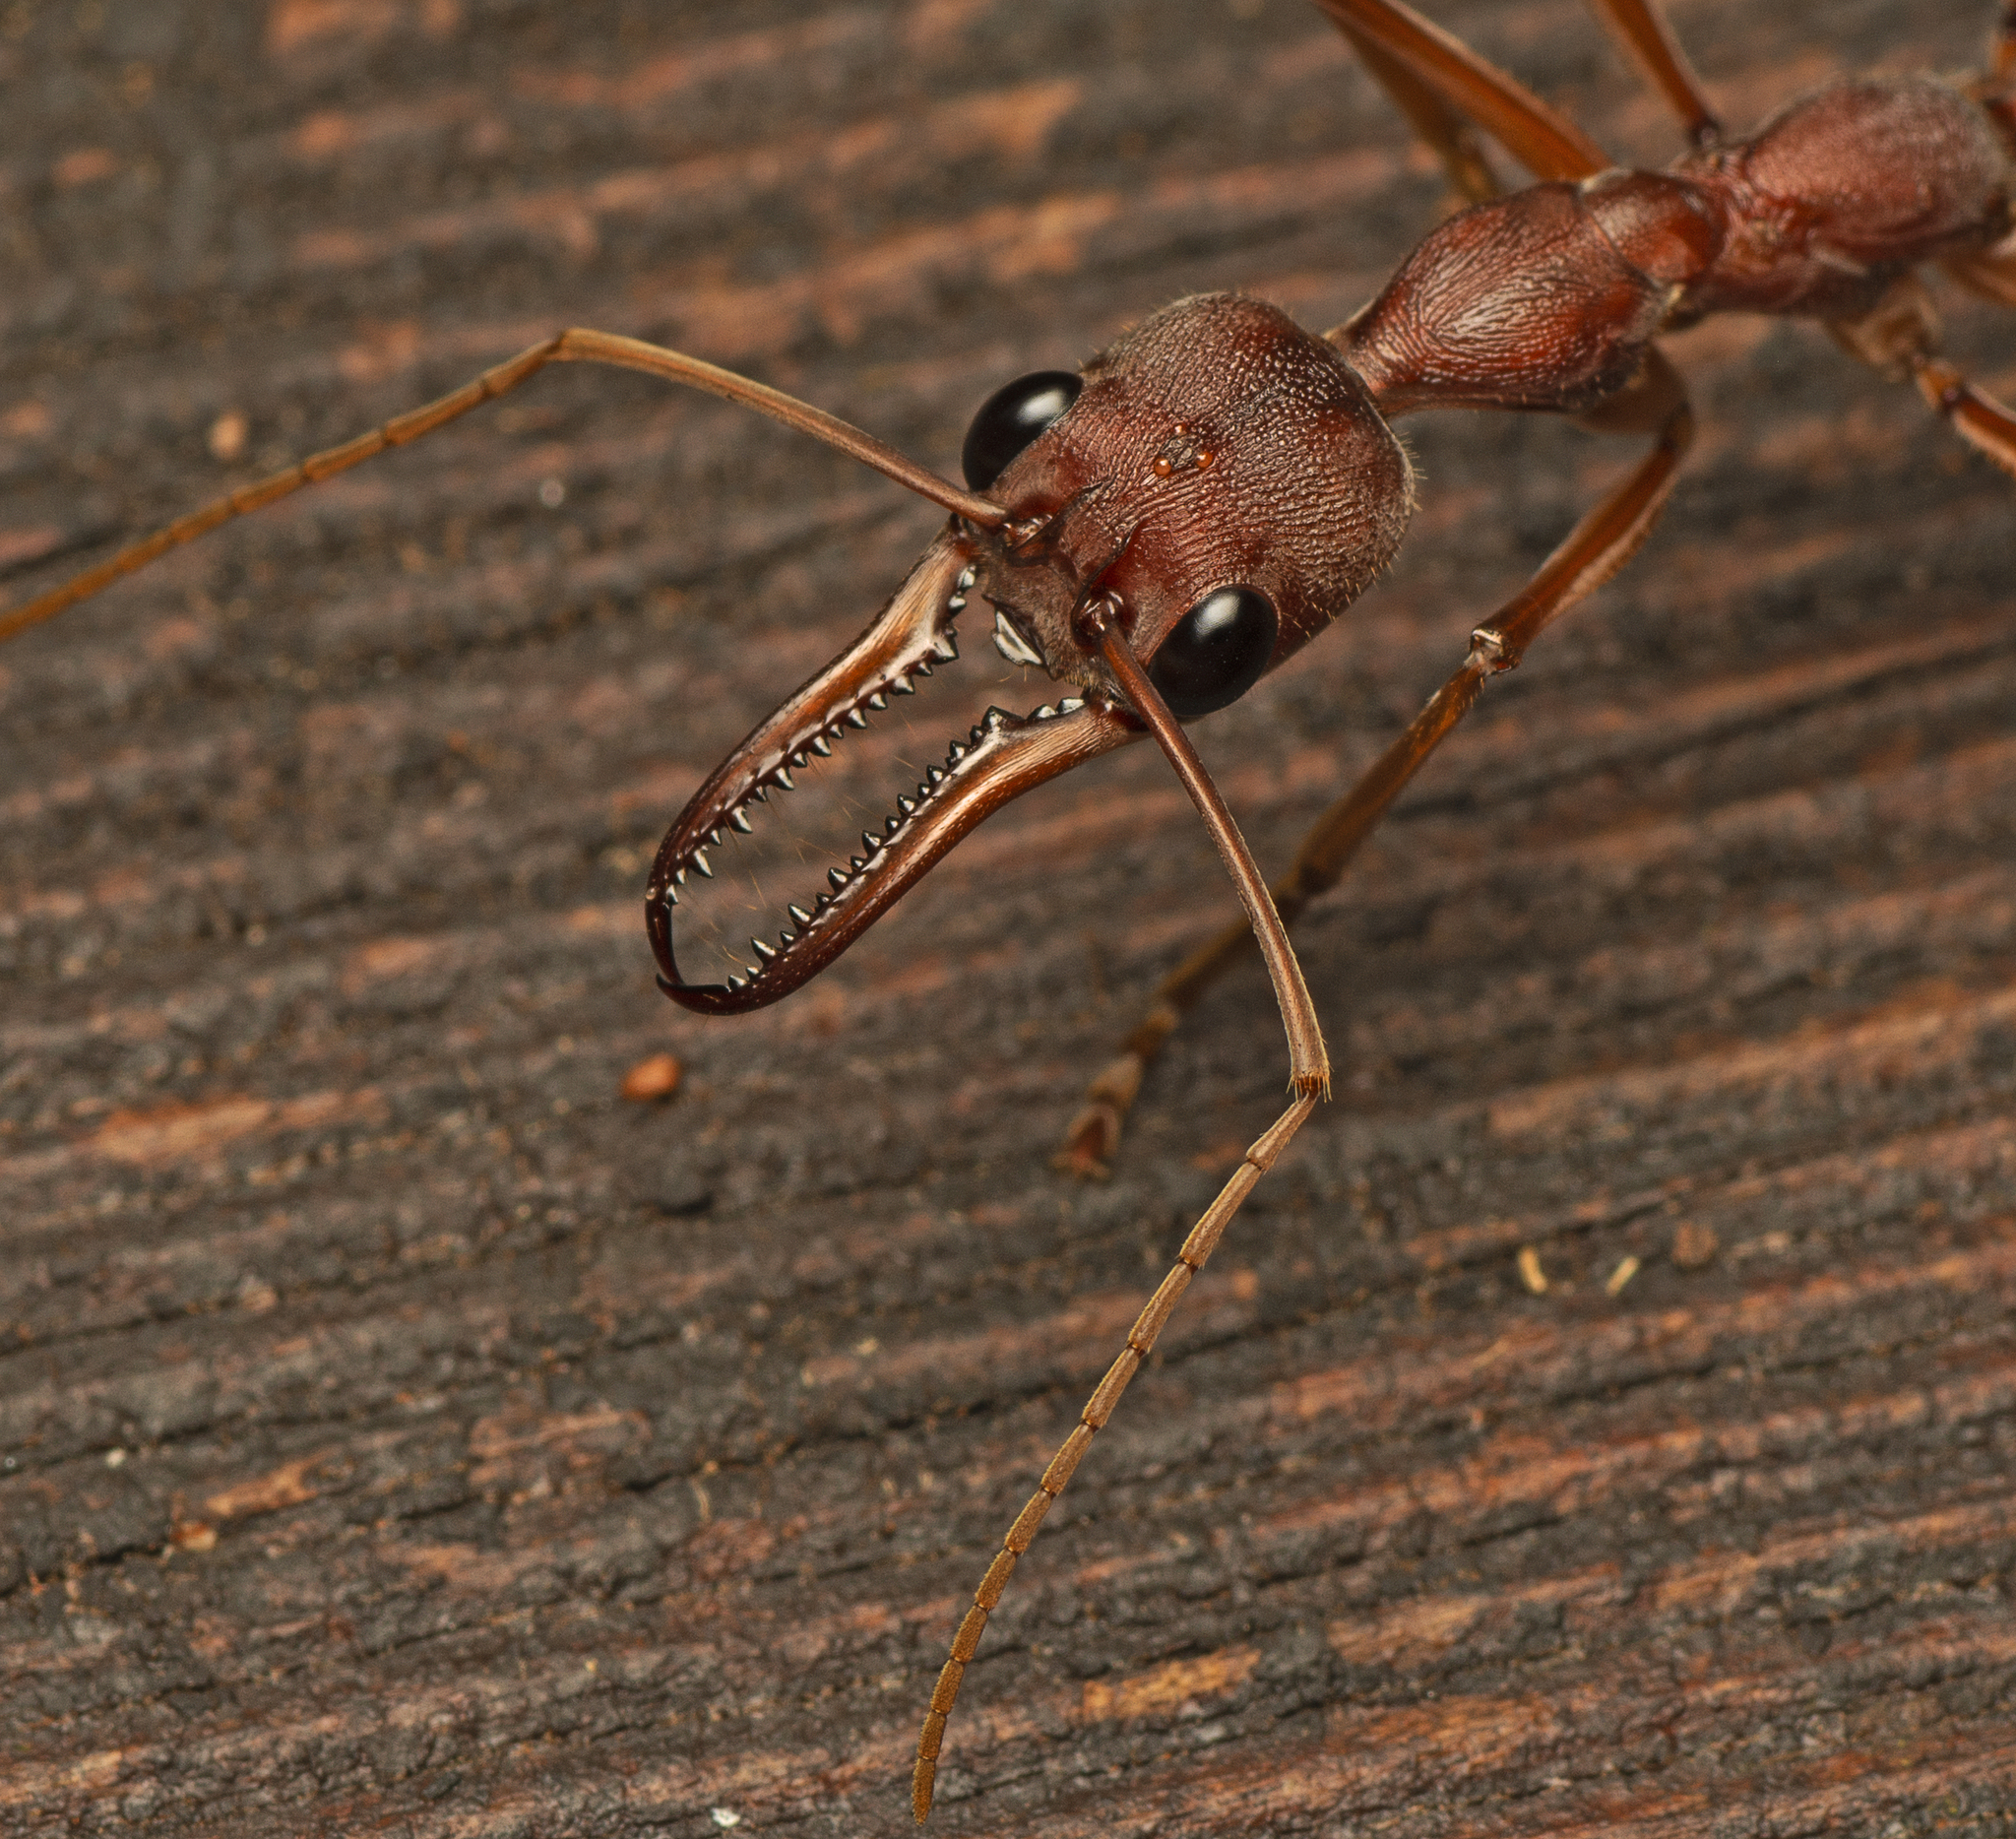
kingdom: Animalia
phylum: Arthropoda
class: Insecta
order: Hymenoptera
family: Formicidae
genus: Myrmecia
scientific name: Myrmecia mjobergi
